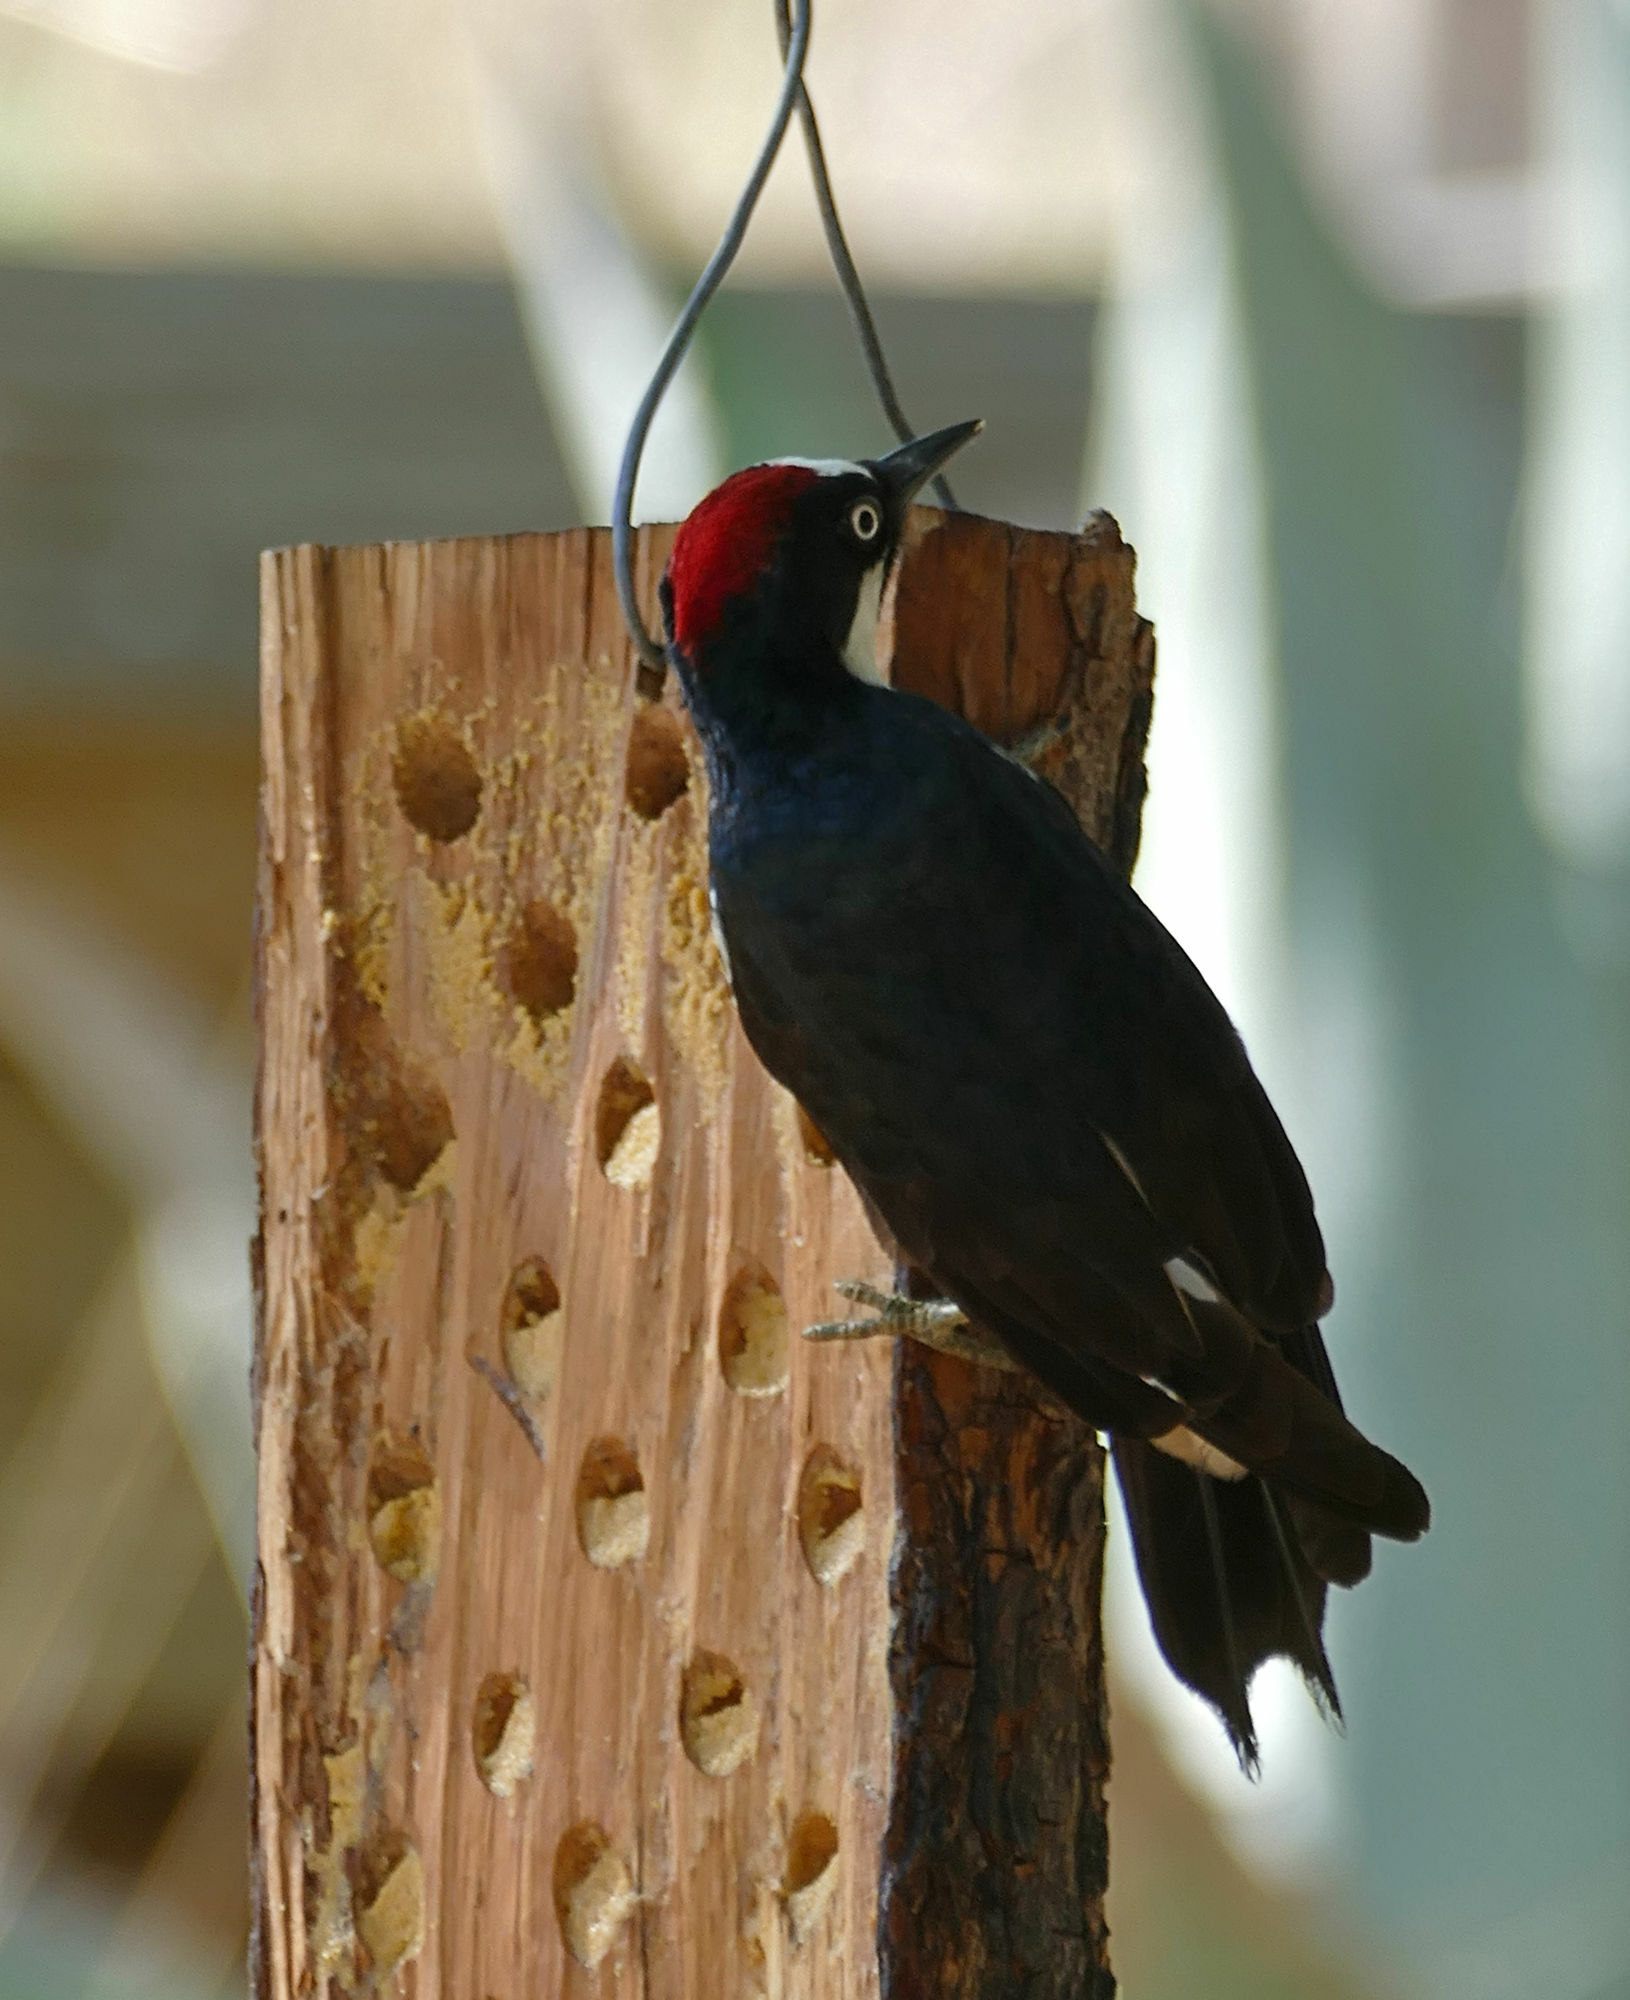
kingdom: Animalia
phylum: Chordata
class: Aves
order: Piciformes
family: Picidae
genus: Melanerpes
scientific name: Melanerpes formicivorus
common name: Acorn woodpecker
